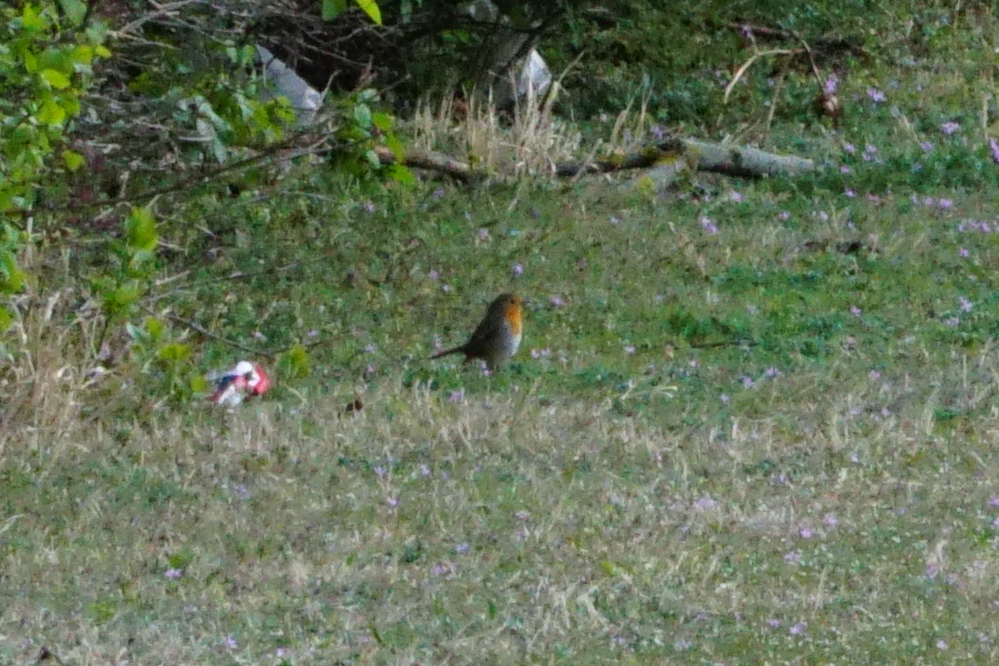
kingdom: Animalia
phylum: Chordata
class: Aves
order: Passeriformes
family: Muscicapidae
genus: Erithacus
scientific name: Erithacus rubecula
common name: European robin
